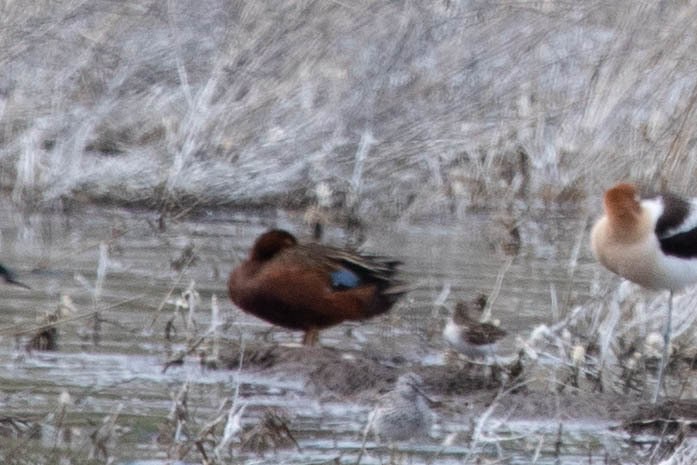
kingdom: Animalia
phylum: Chordata
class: Aves
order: Anseriformes
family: Anatidae
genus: Spatula
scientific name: Spatula cyanoptera
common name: Cinnamon teal
